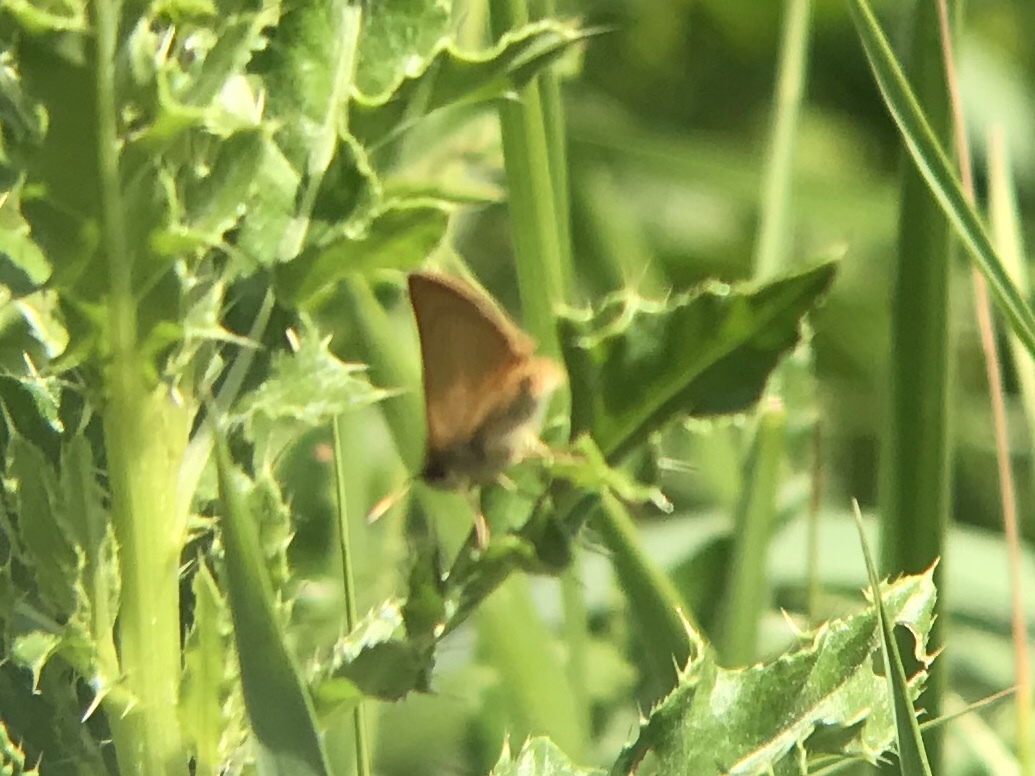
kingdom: Animalia
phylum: Arthropoda
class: Insecta
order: Lepidoptera
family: Hesperiidae
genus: Thymelicus
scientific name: Thymelicus lineola
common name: Essex skipper
